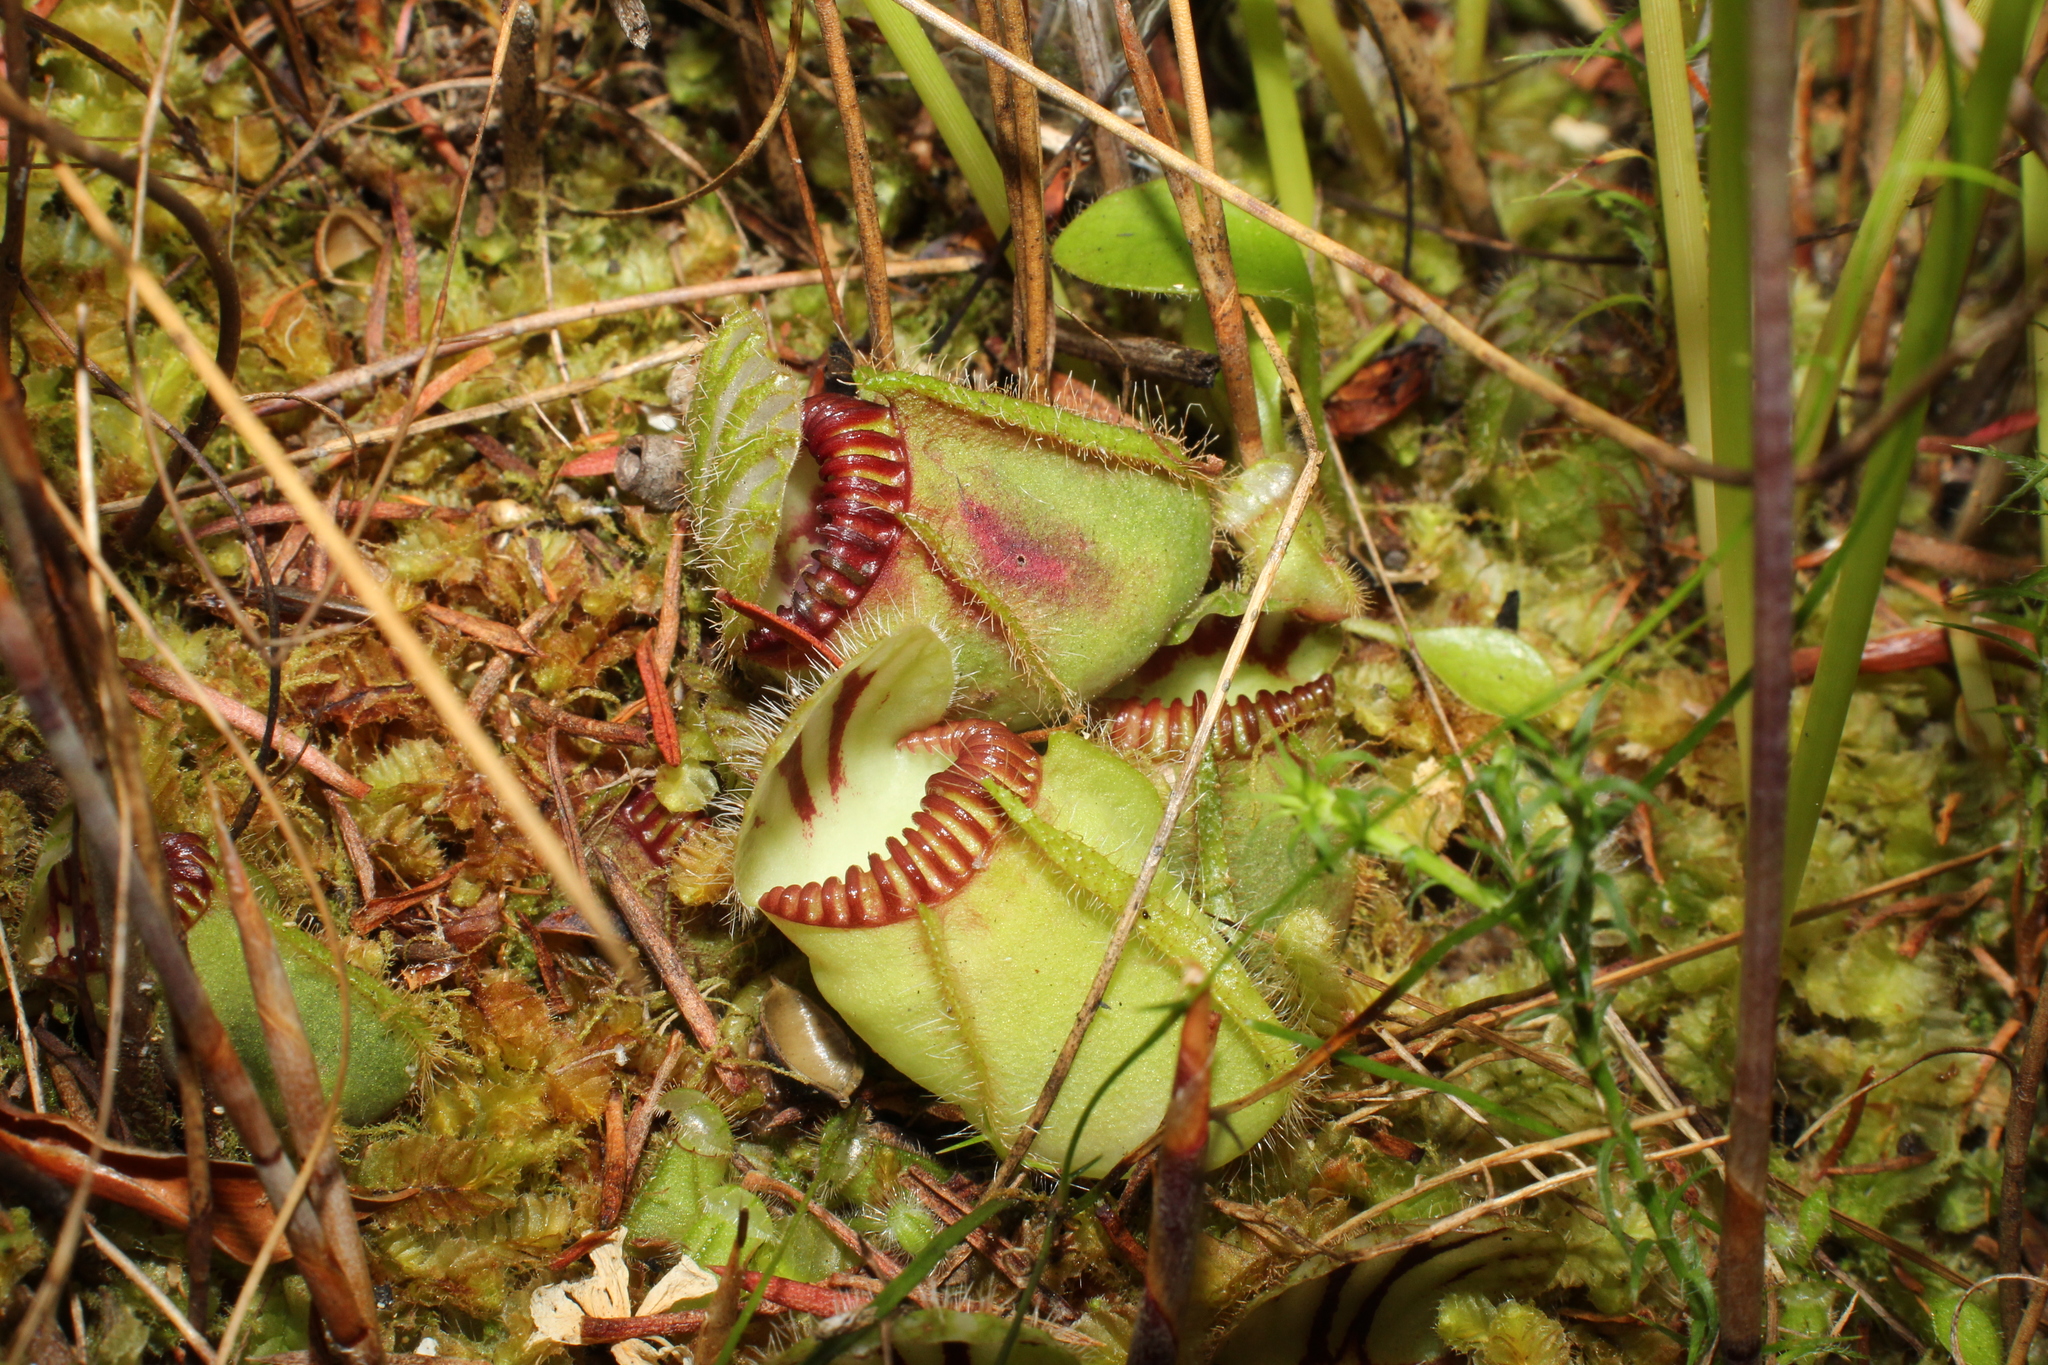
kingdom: Plantae
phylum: Tracheophyta
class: Magnoliopsida
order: Oxalidales
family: Cephalotaceae
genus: Cephalotus
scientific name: Cephalotus follicularis
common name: Australian pitcher plant
